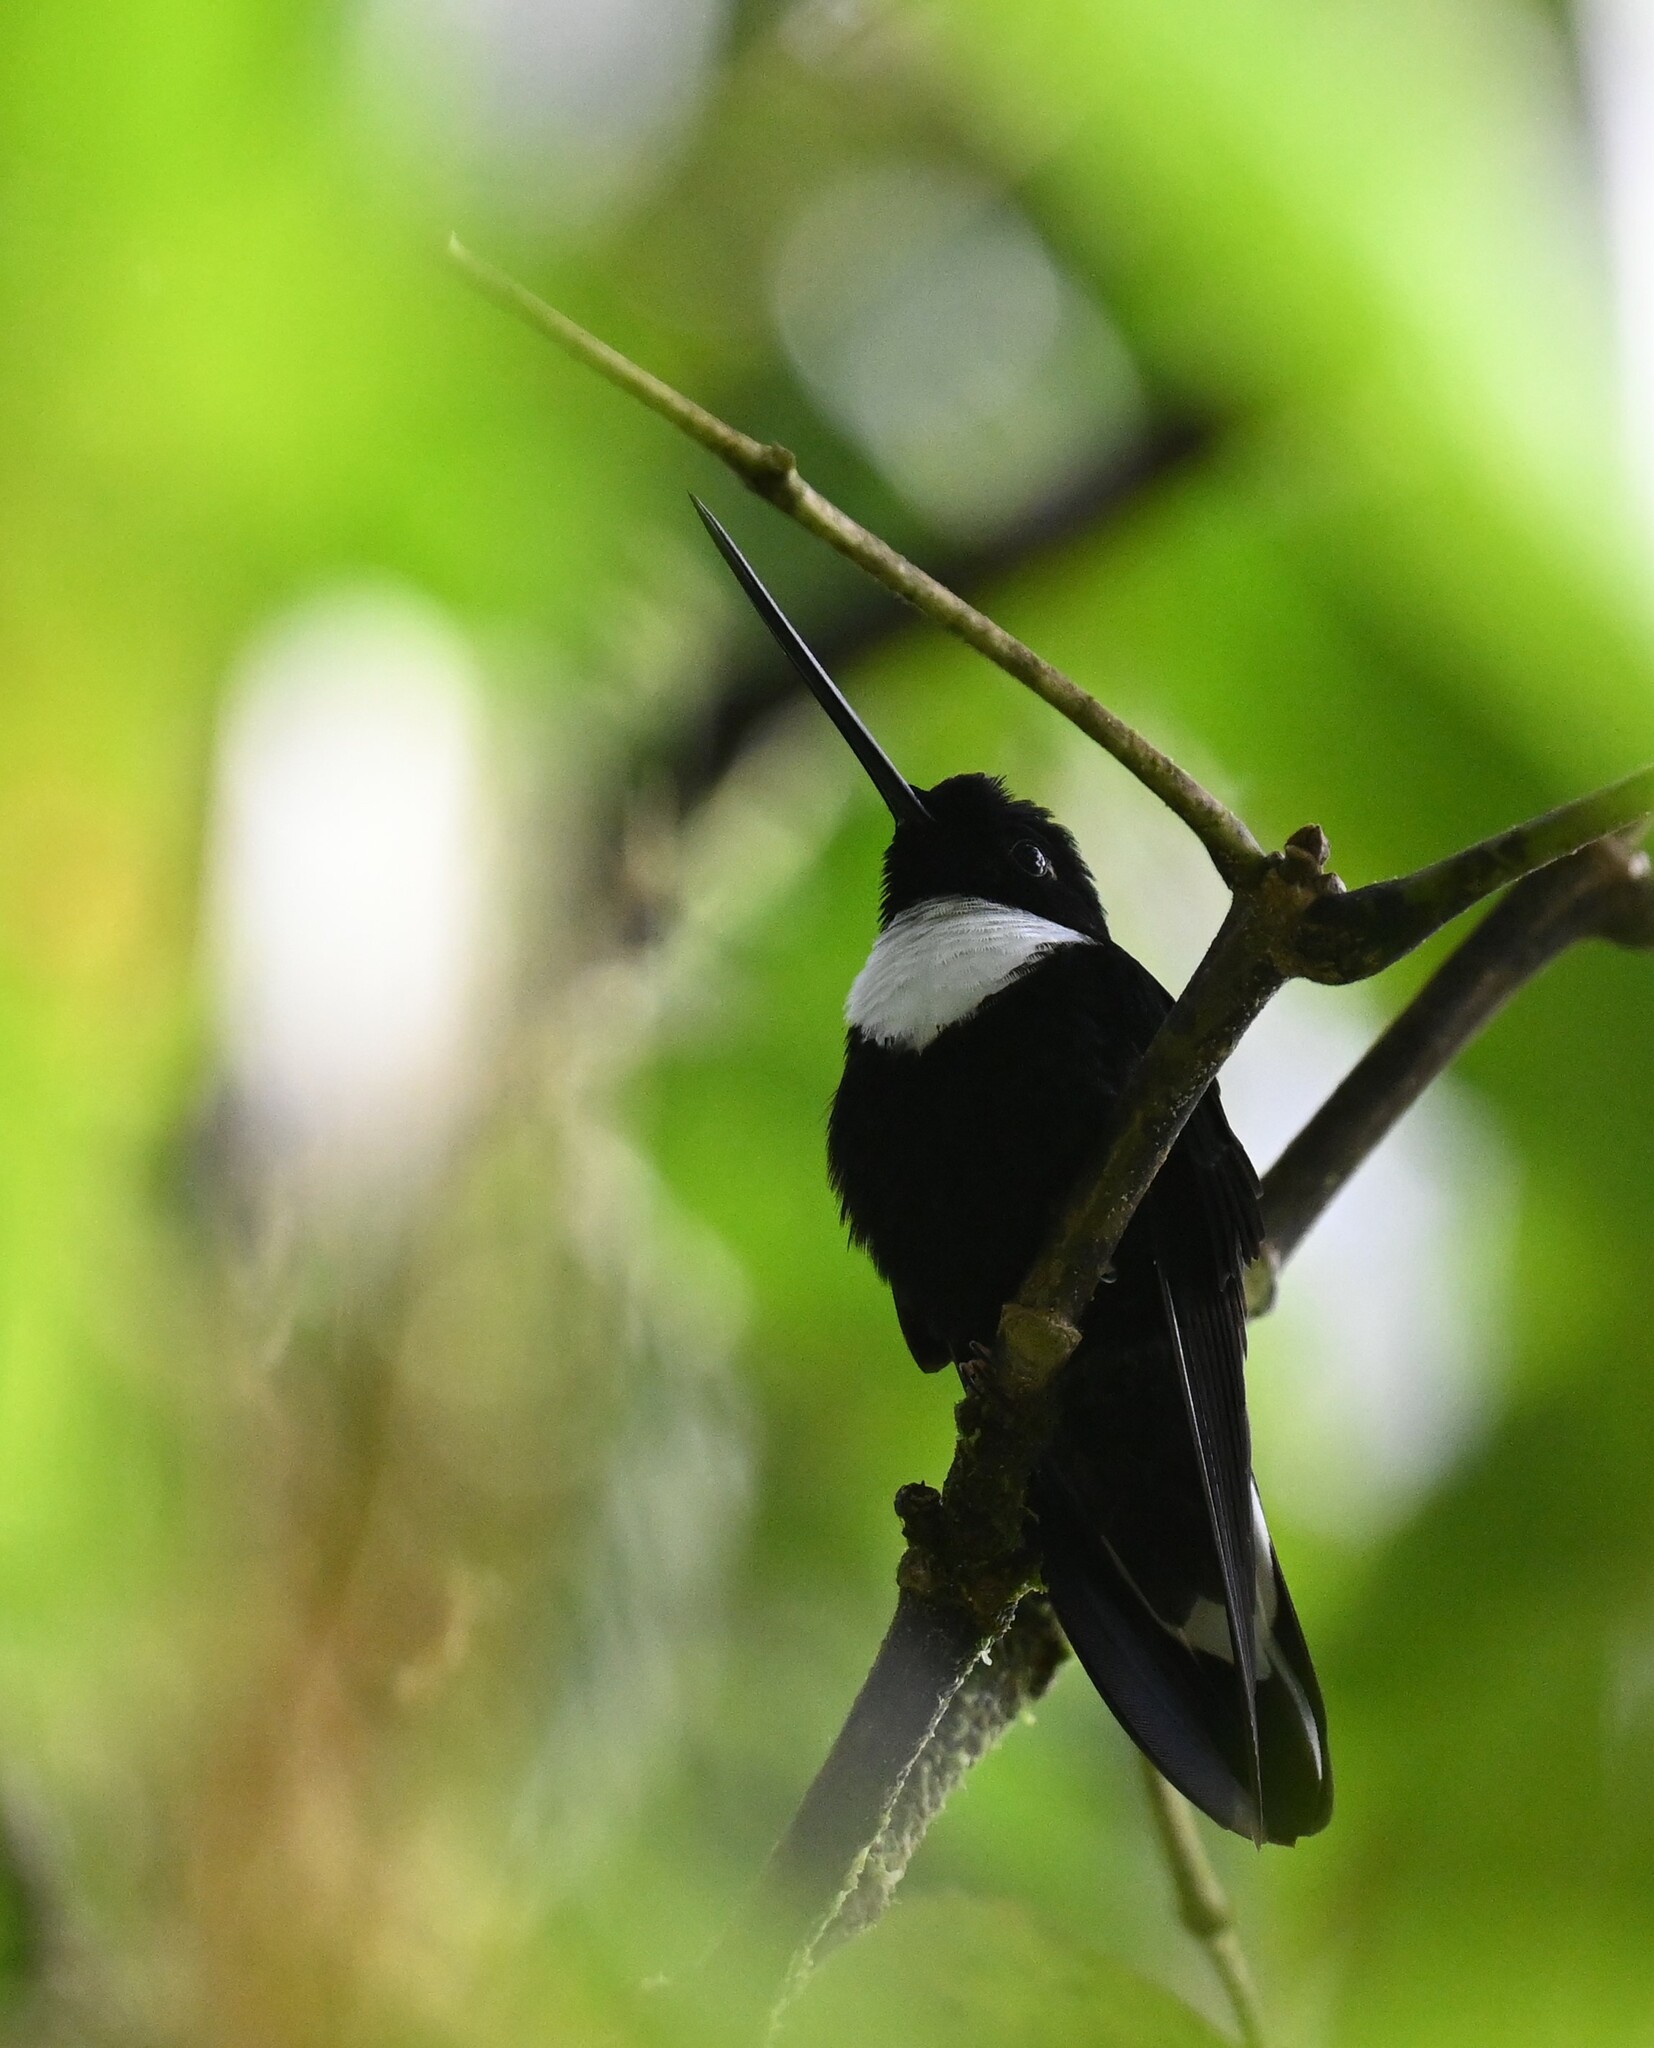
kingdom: Animalia
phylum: Chordata
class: Aves
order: Apodiformes
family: Trochilidae
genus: Coeligena
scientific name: Coeligena torquata
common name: Collared inca
